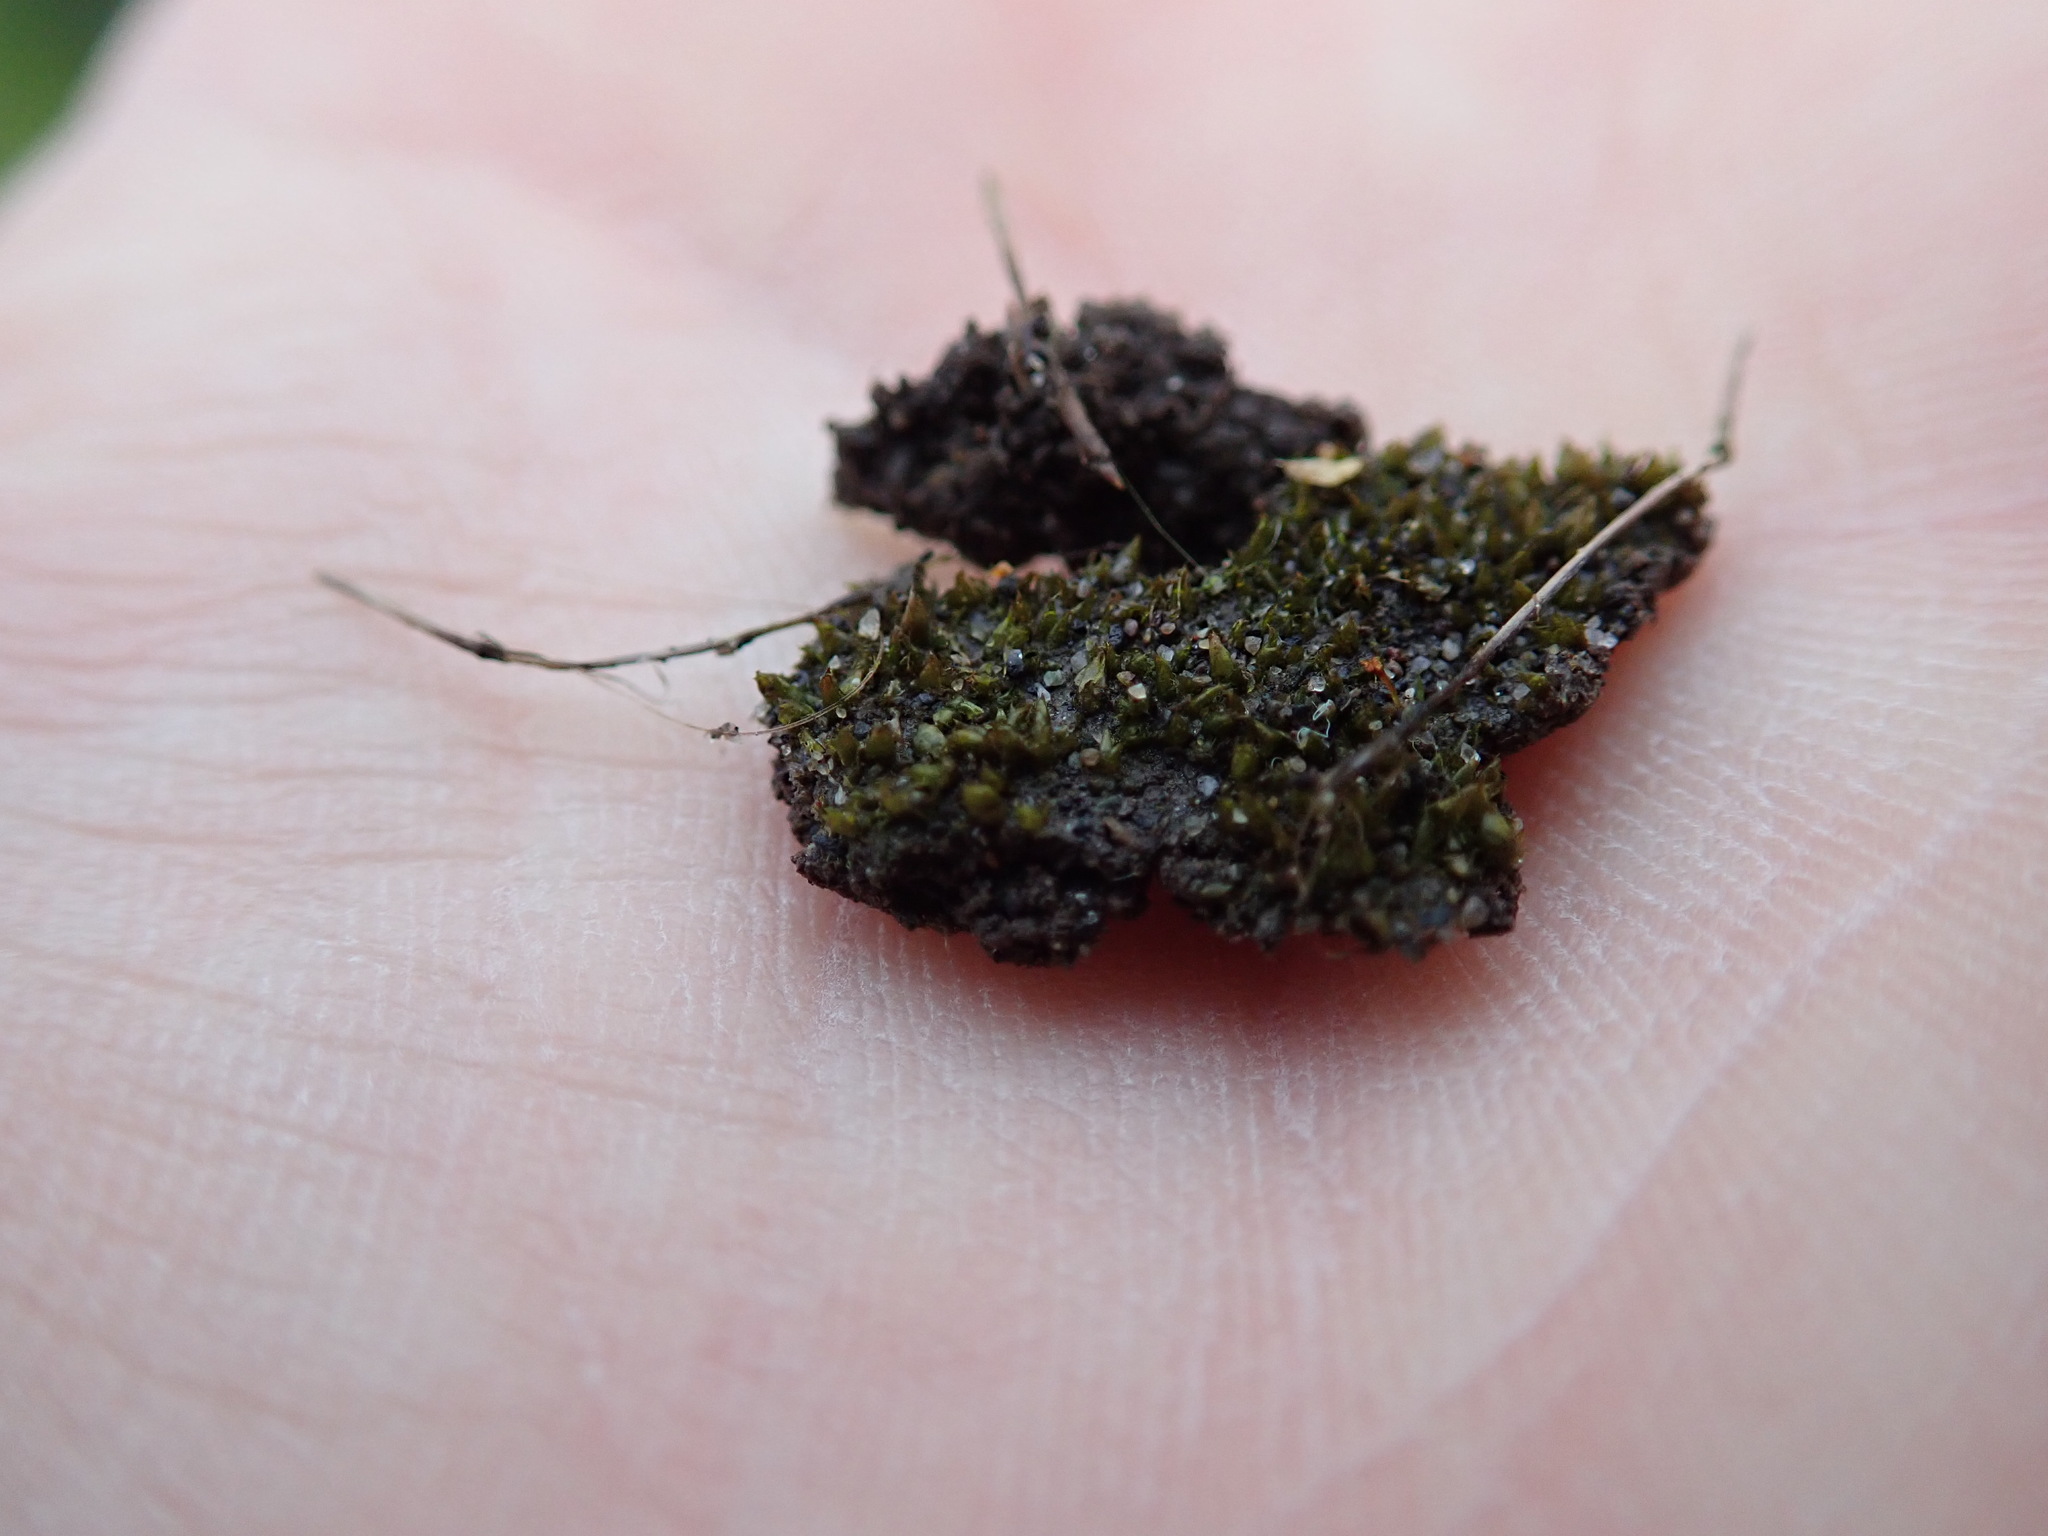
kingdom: Plantae
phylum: Bryophyta
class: Bryopsida
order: Pottiales
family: Pottiaceae
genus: Tortula
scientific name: Tortula truncata
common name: Truncated screw moss
